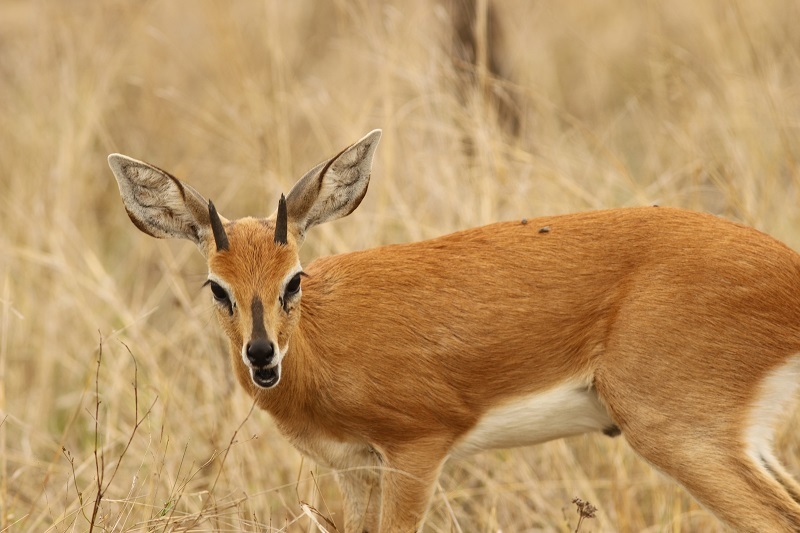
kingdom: Animalia
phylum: Chordata
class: Mammalia
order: Artiodactyla
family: Bovidae
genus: Raphicerus
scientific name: Raphicerus campestris
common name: Steenbok
